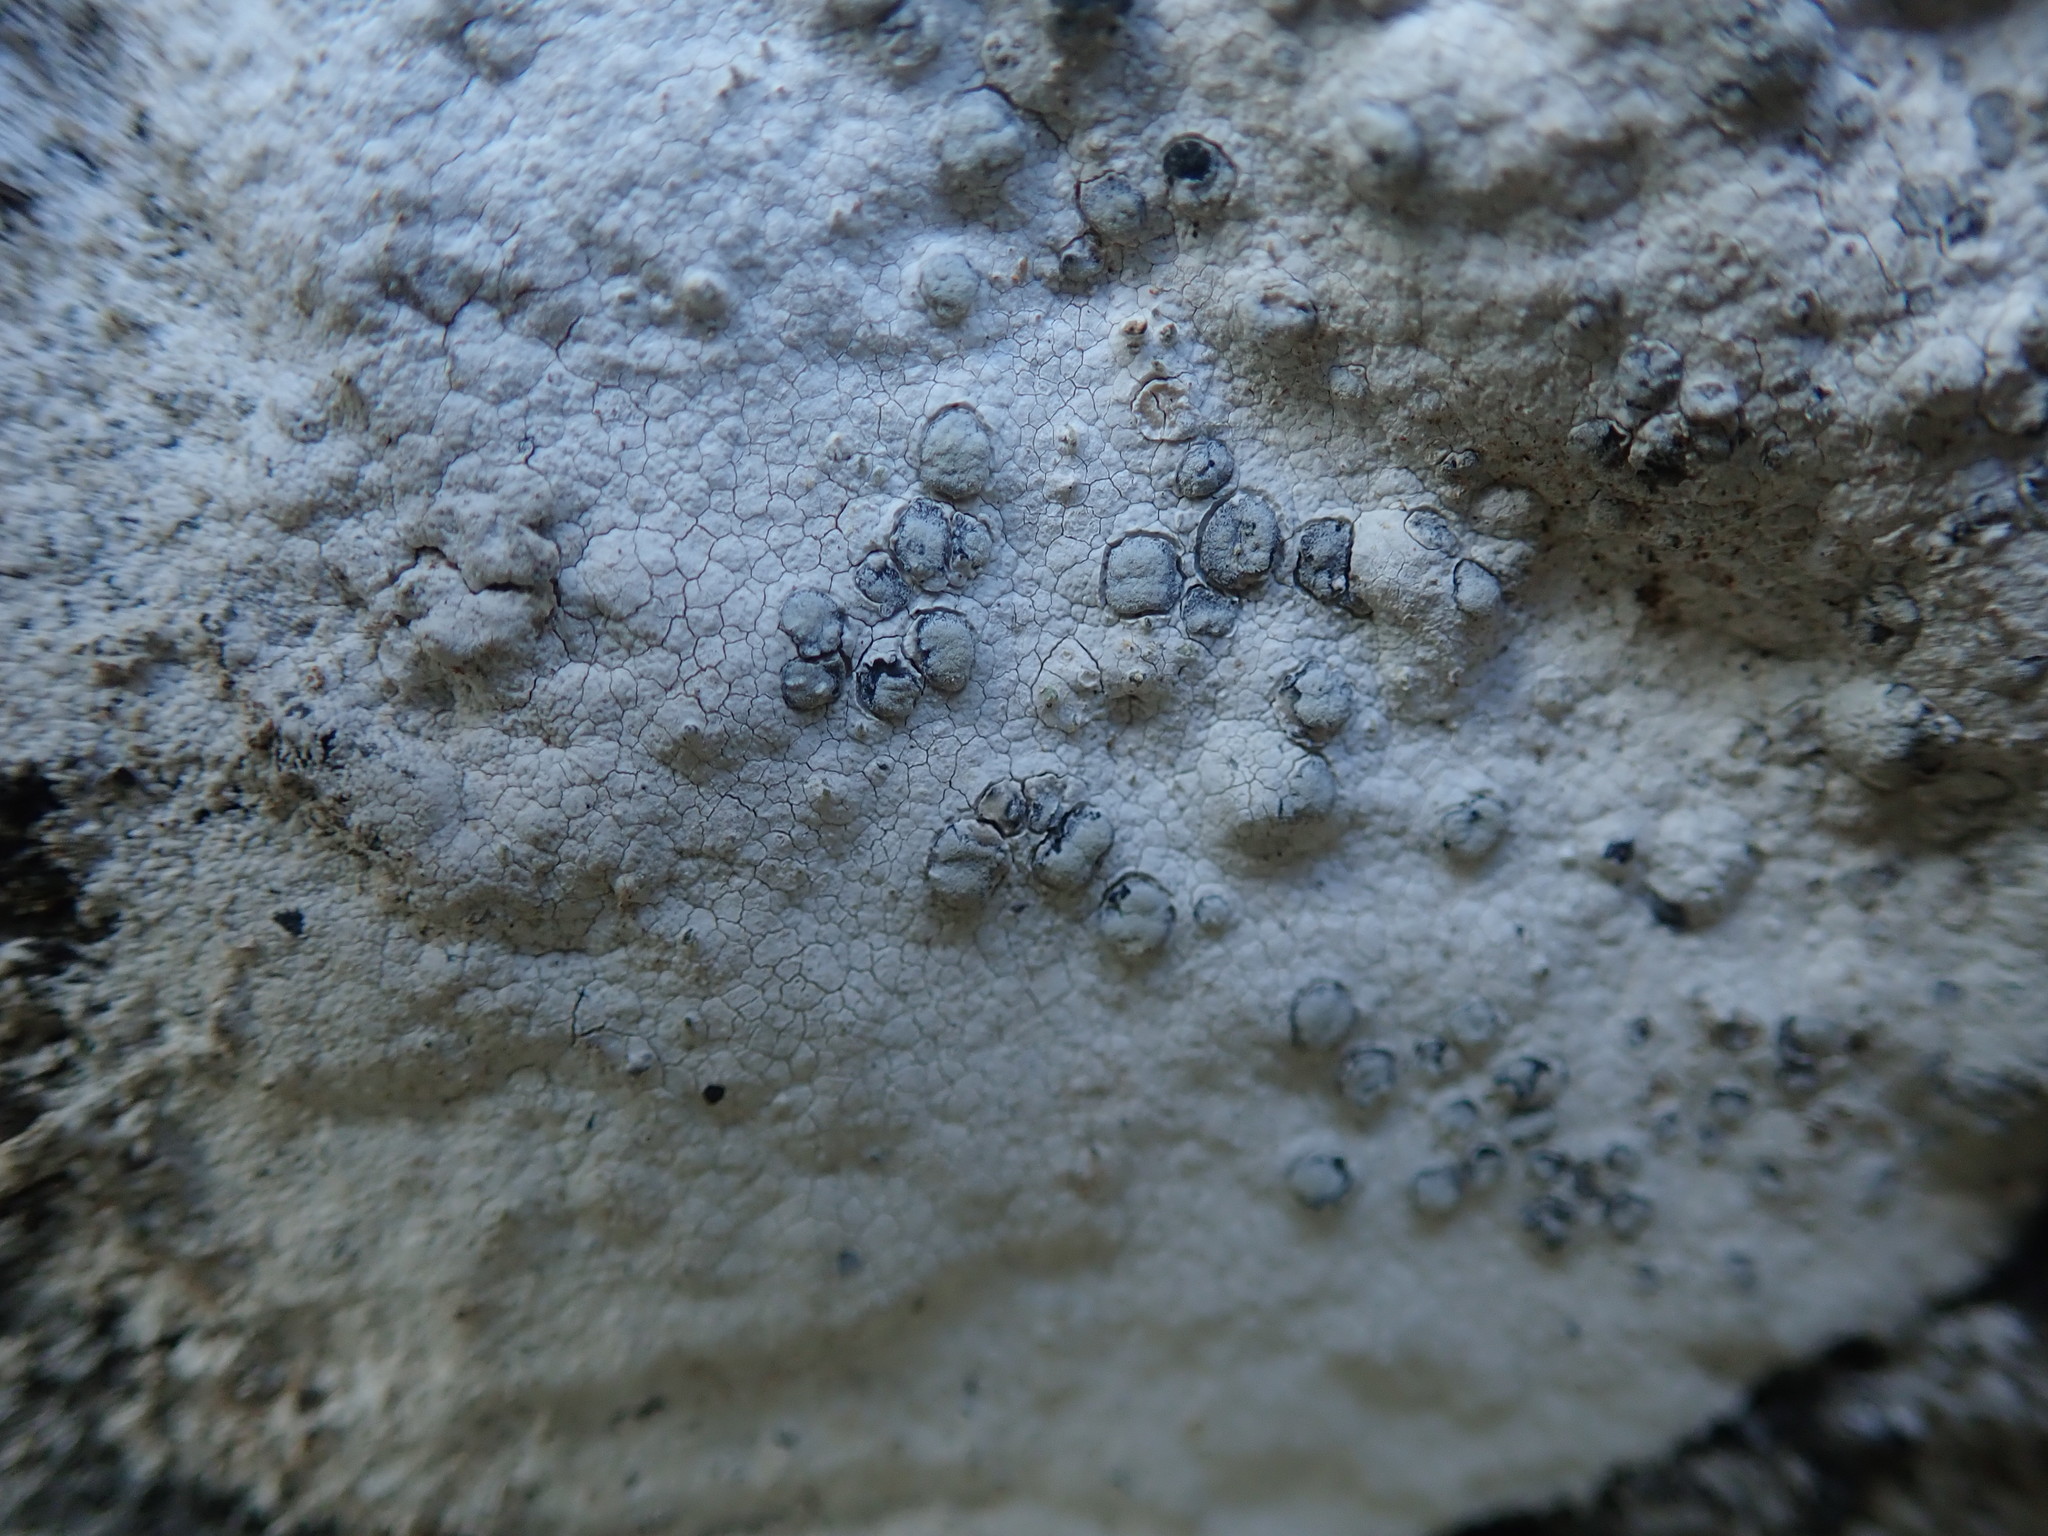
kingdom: Fungi
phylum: Ascomycota
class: Lecanoromycetes
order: Lecanorales
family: Lecanoraceae
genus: Glaucomaria
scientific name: Glaucomaria rupicola
